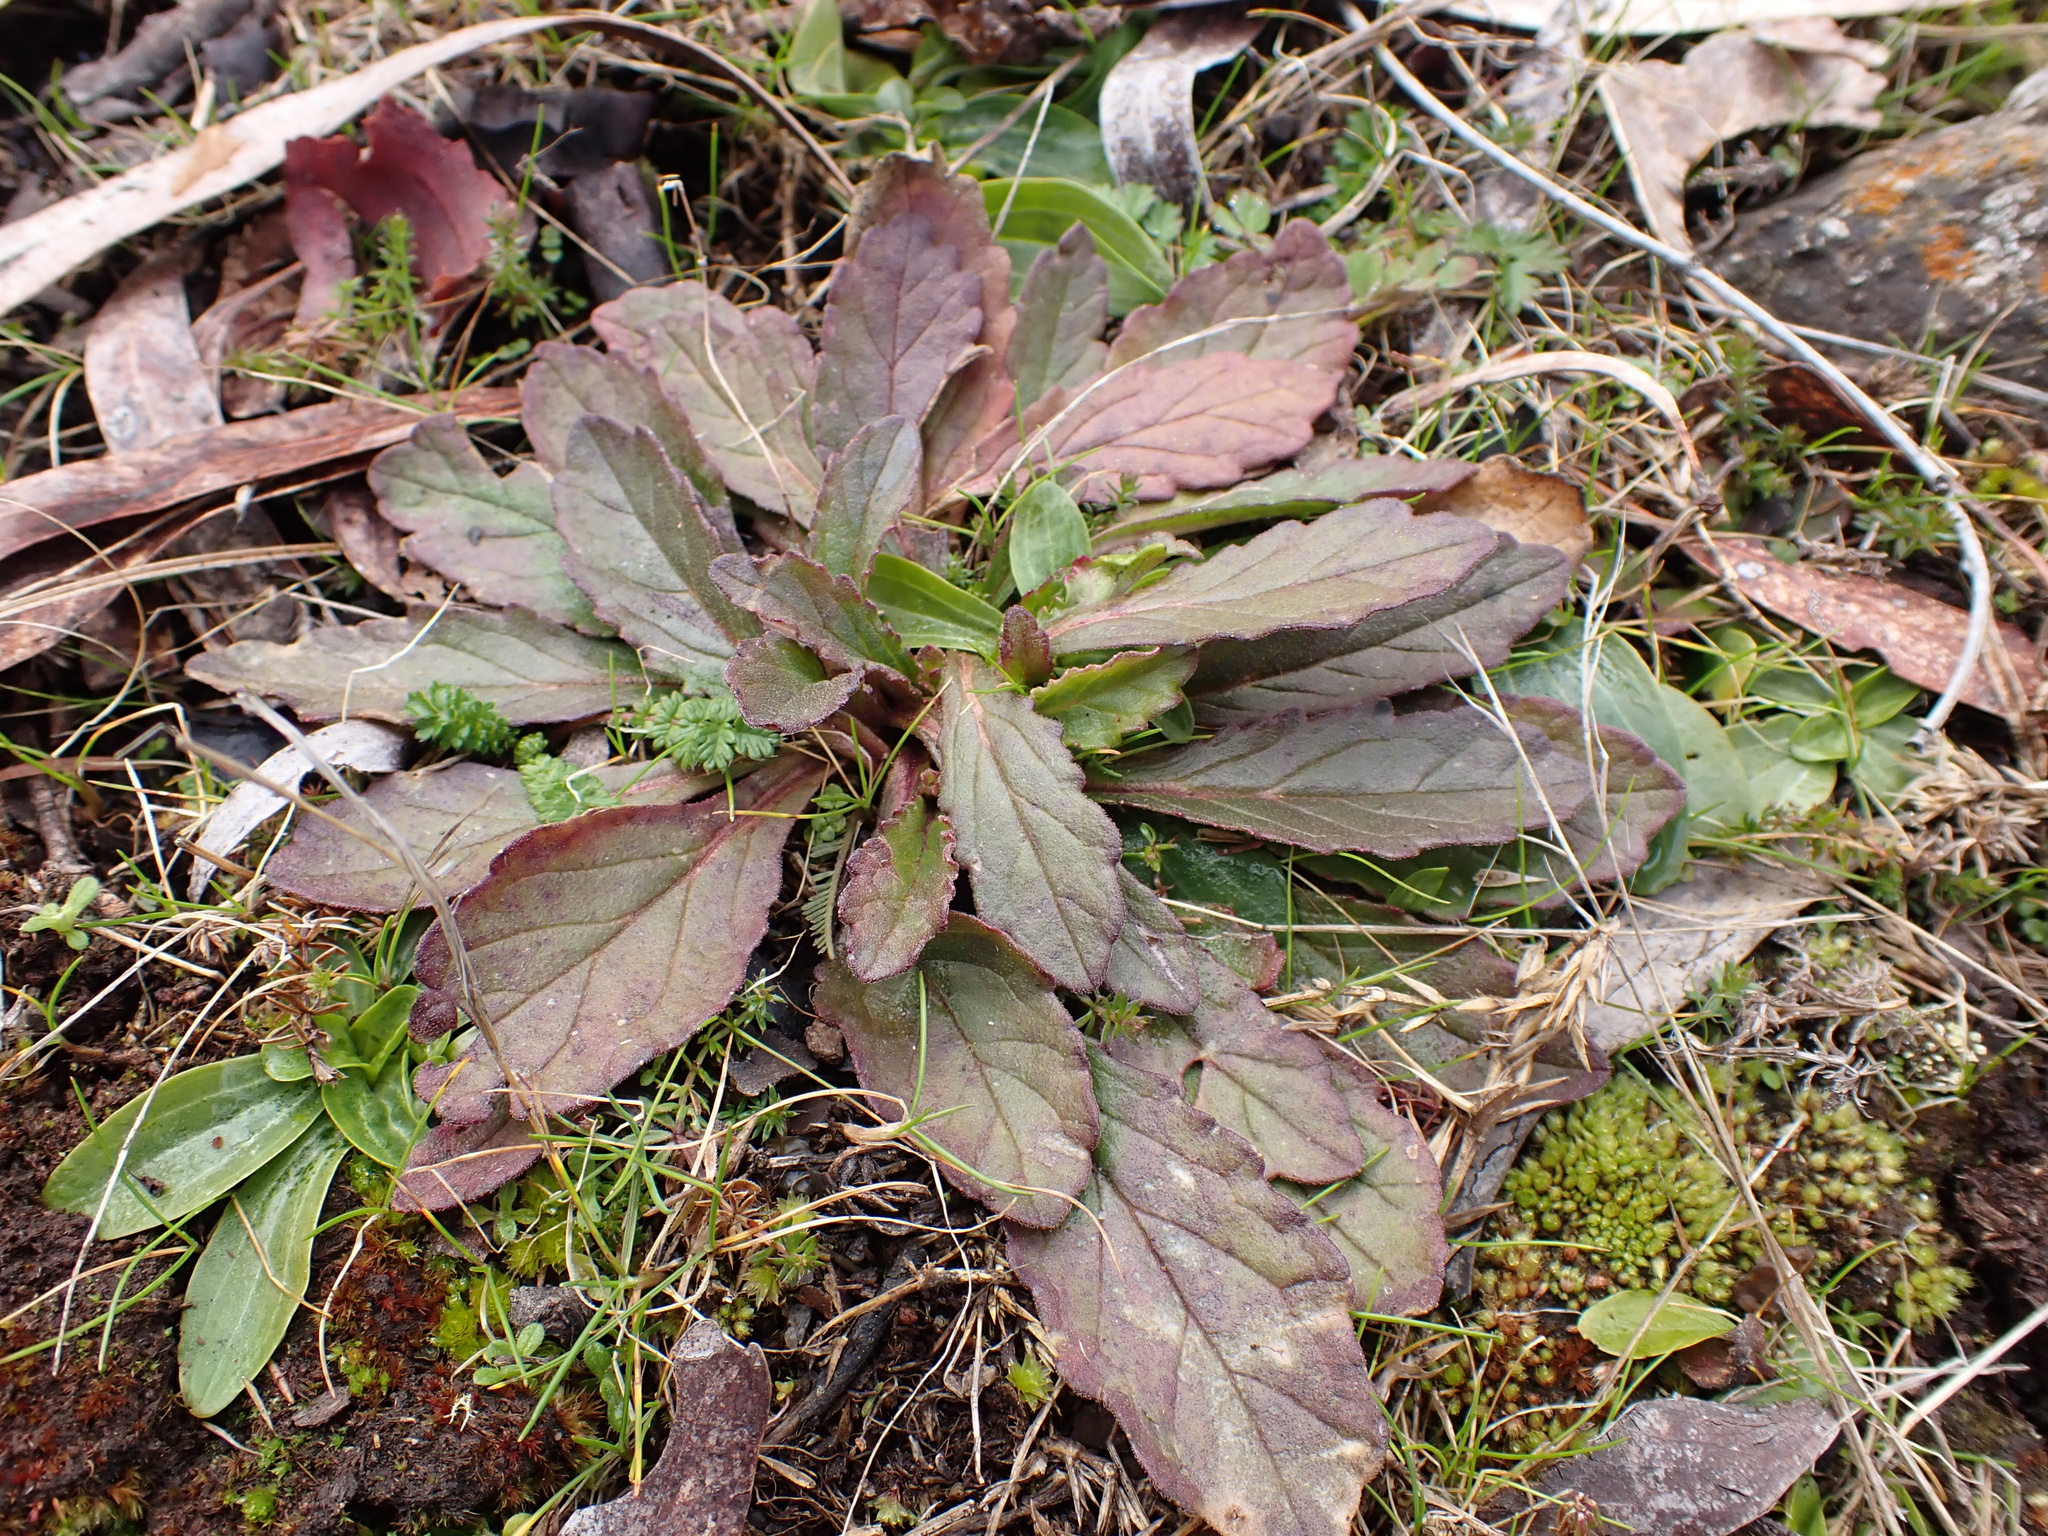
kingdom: Plantae
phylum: Tracheophyta
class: Magnoliopsida
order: Lamiales
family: Lamiaceae
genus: Ajuga
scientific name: Ajuga australis
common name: Australian bugle
